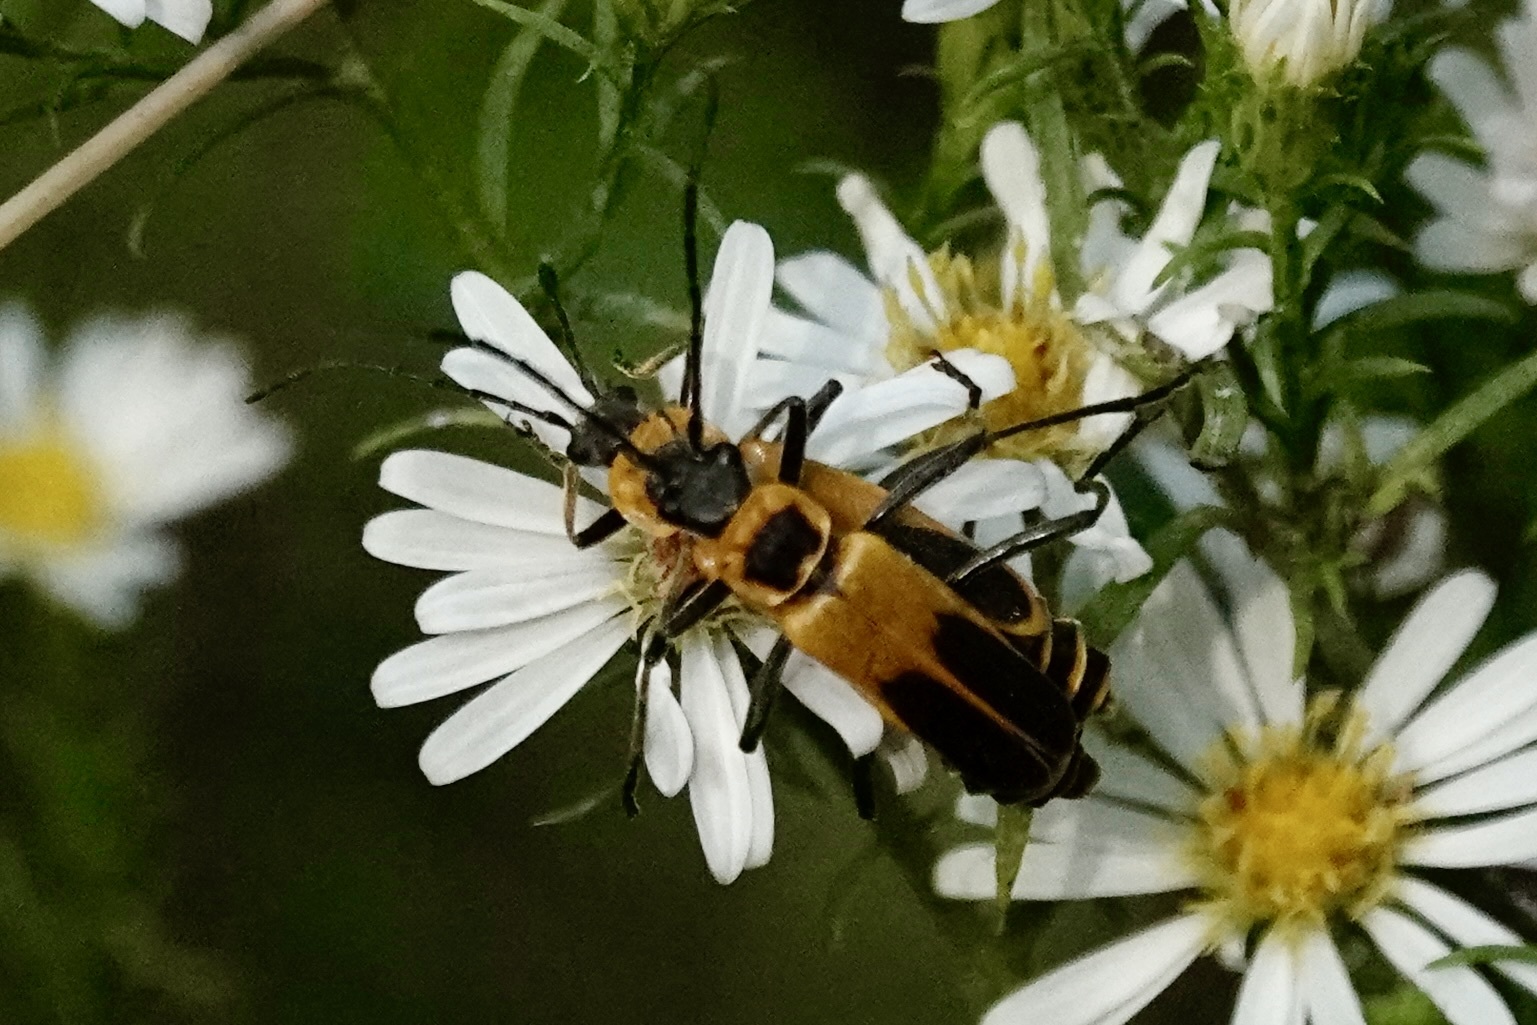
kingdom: Animalia
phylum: Arthropoda
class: Insecta
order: Coleoptera
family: Cantharidae
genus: Chauliognathus
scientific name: Chauliognathus pensylvanicus
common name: Goldenrod soldier beetle
